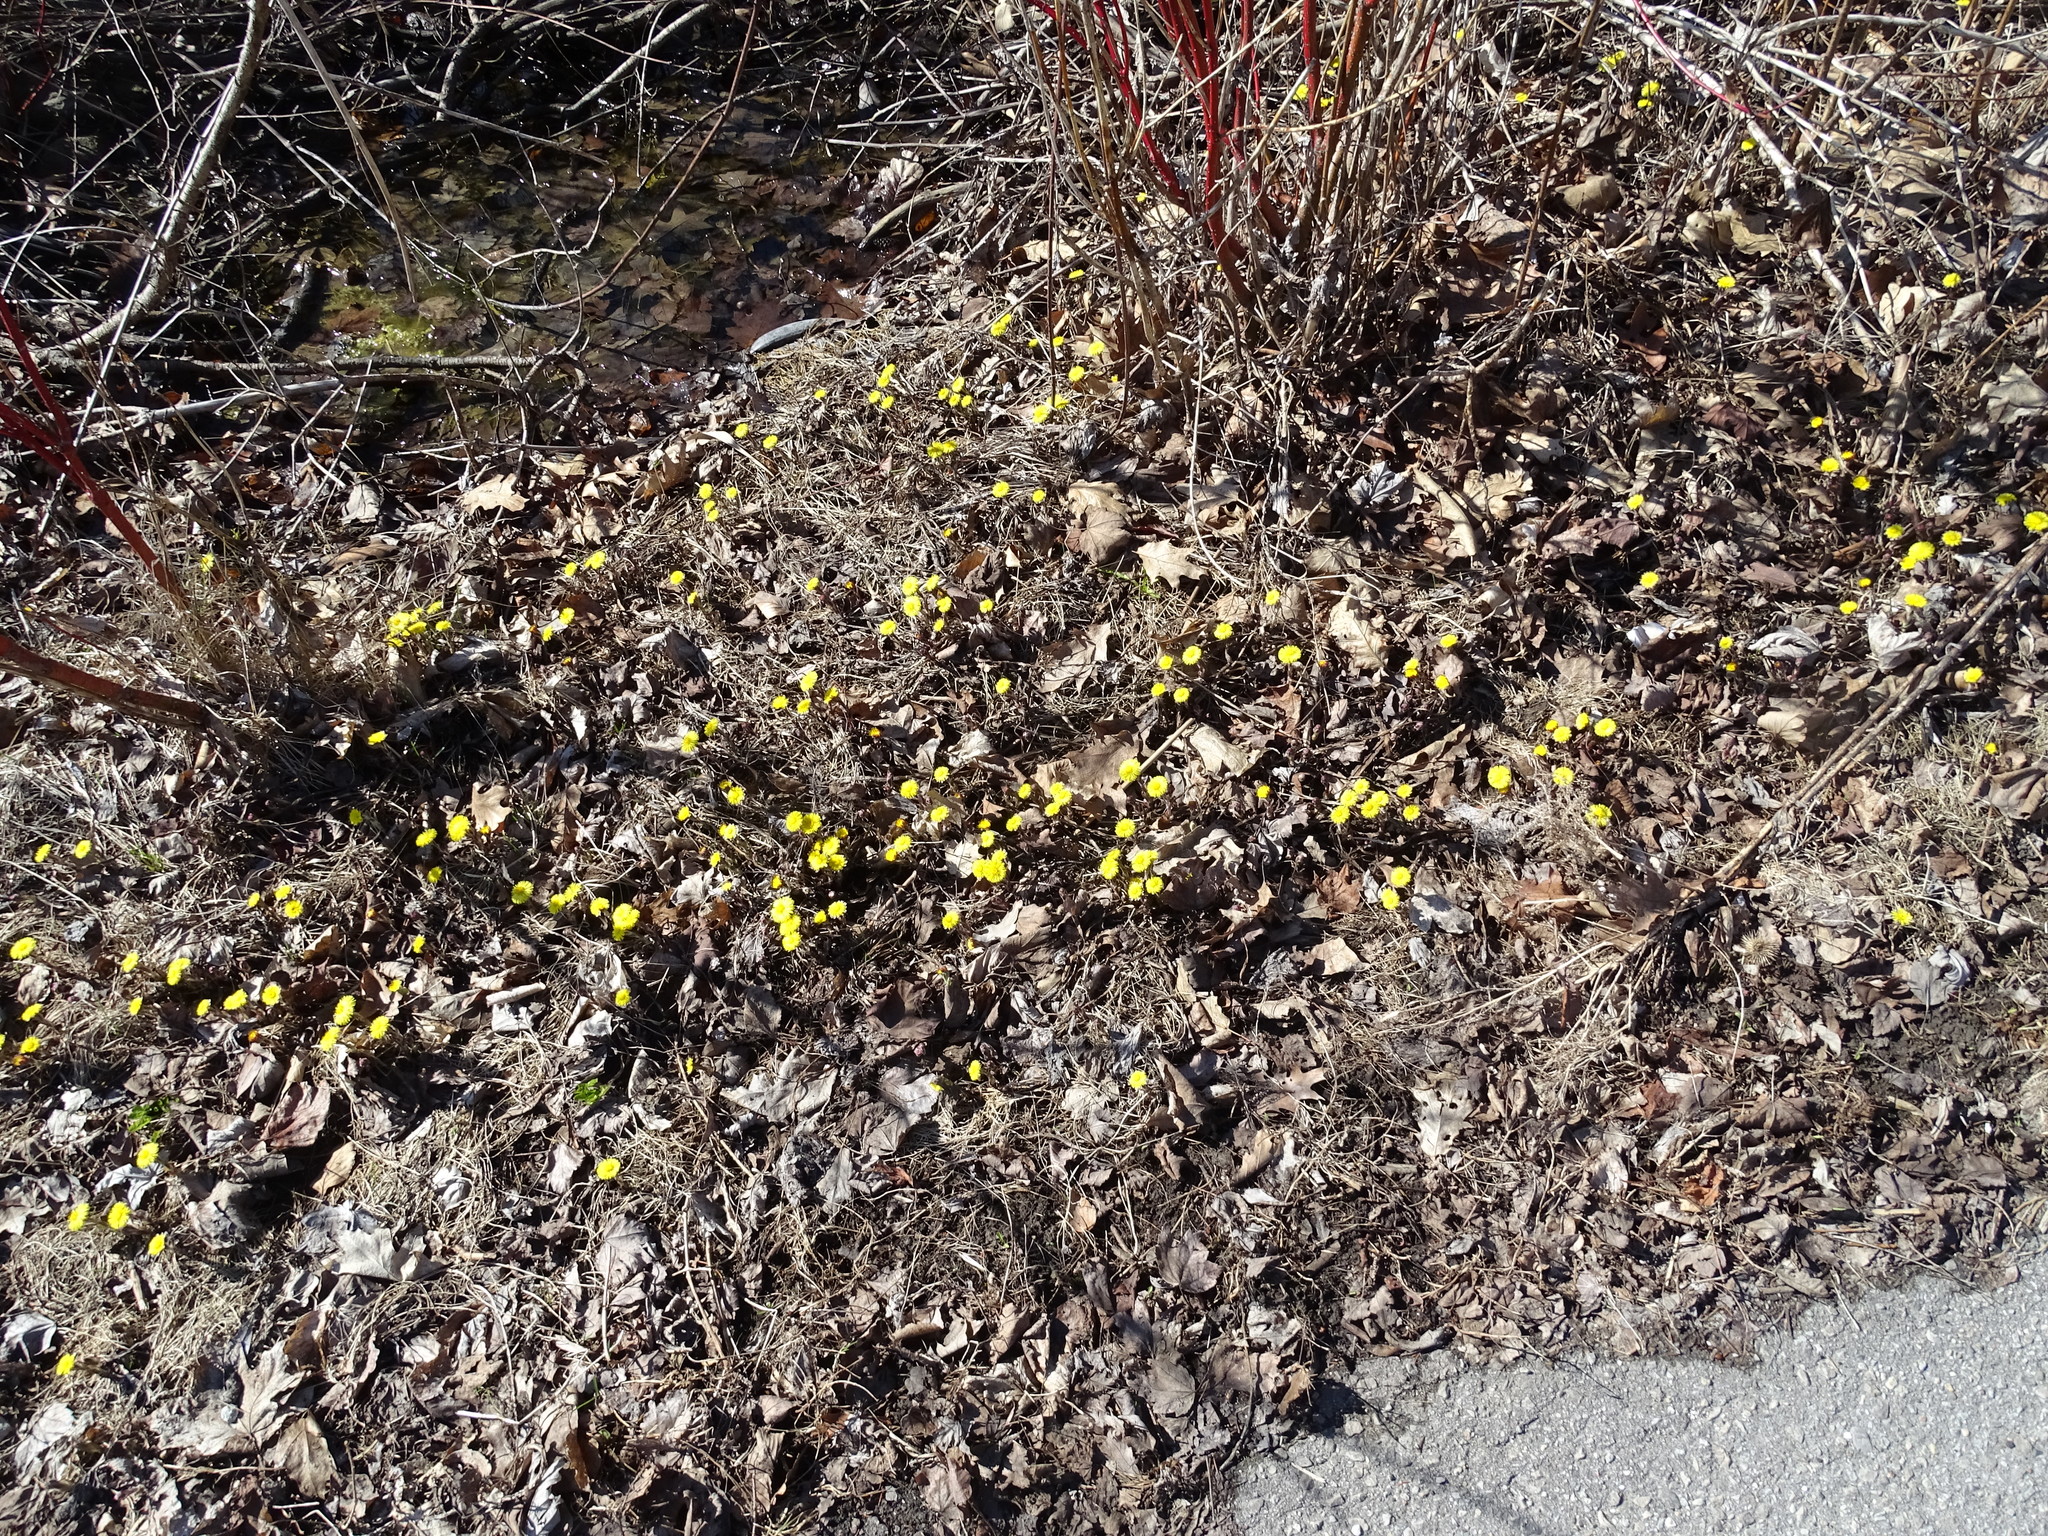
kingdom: Plantae
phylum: Tracheophyta
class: Magnoliopsida
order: Asterales
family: Asteraceae
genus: Tussilago
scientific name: Tussilago farfara
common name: Coltsfoot
